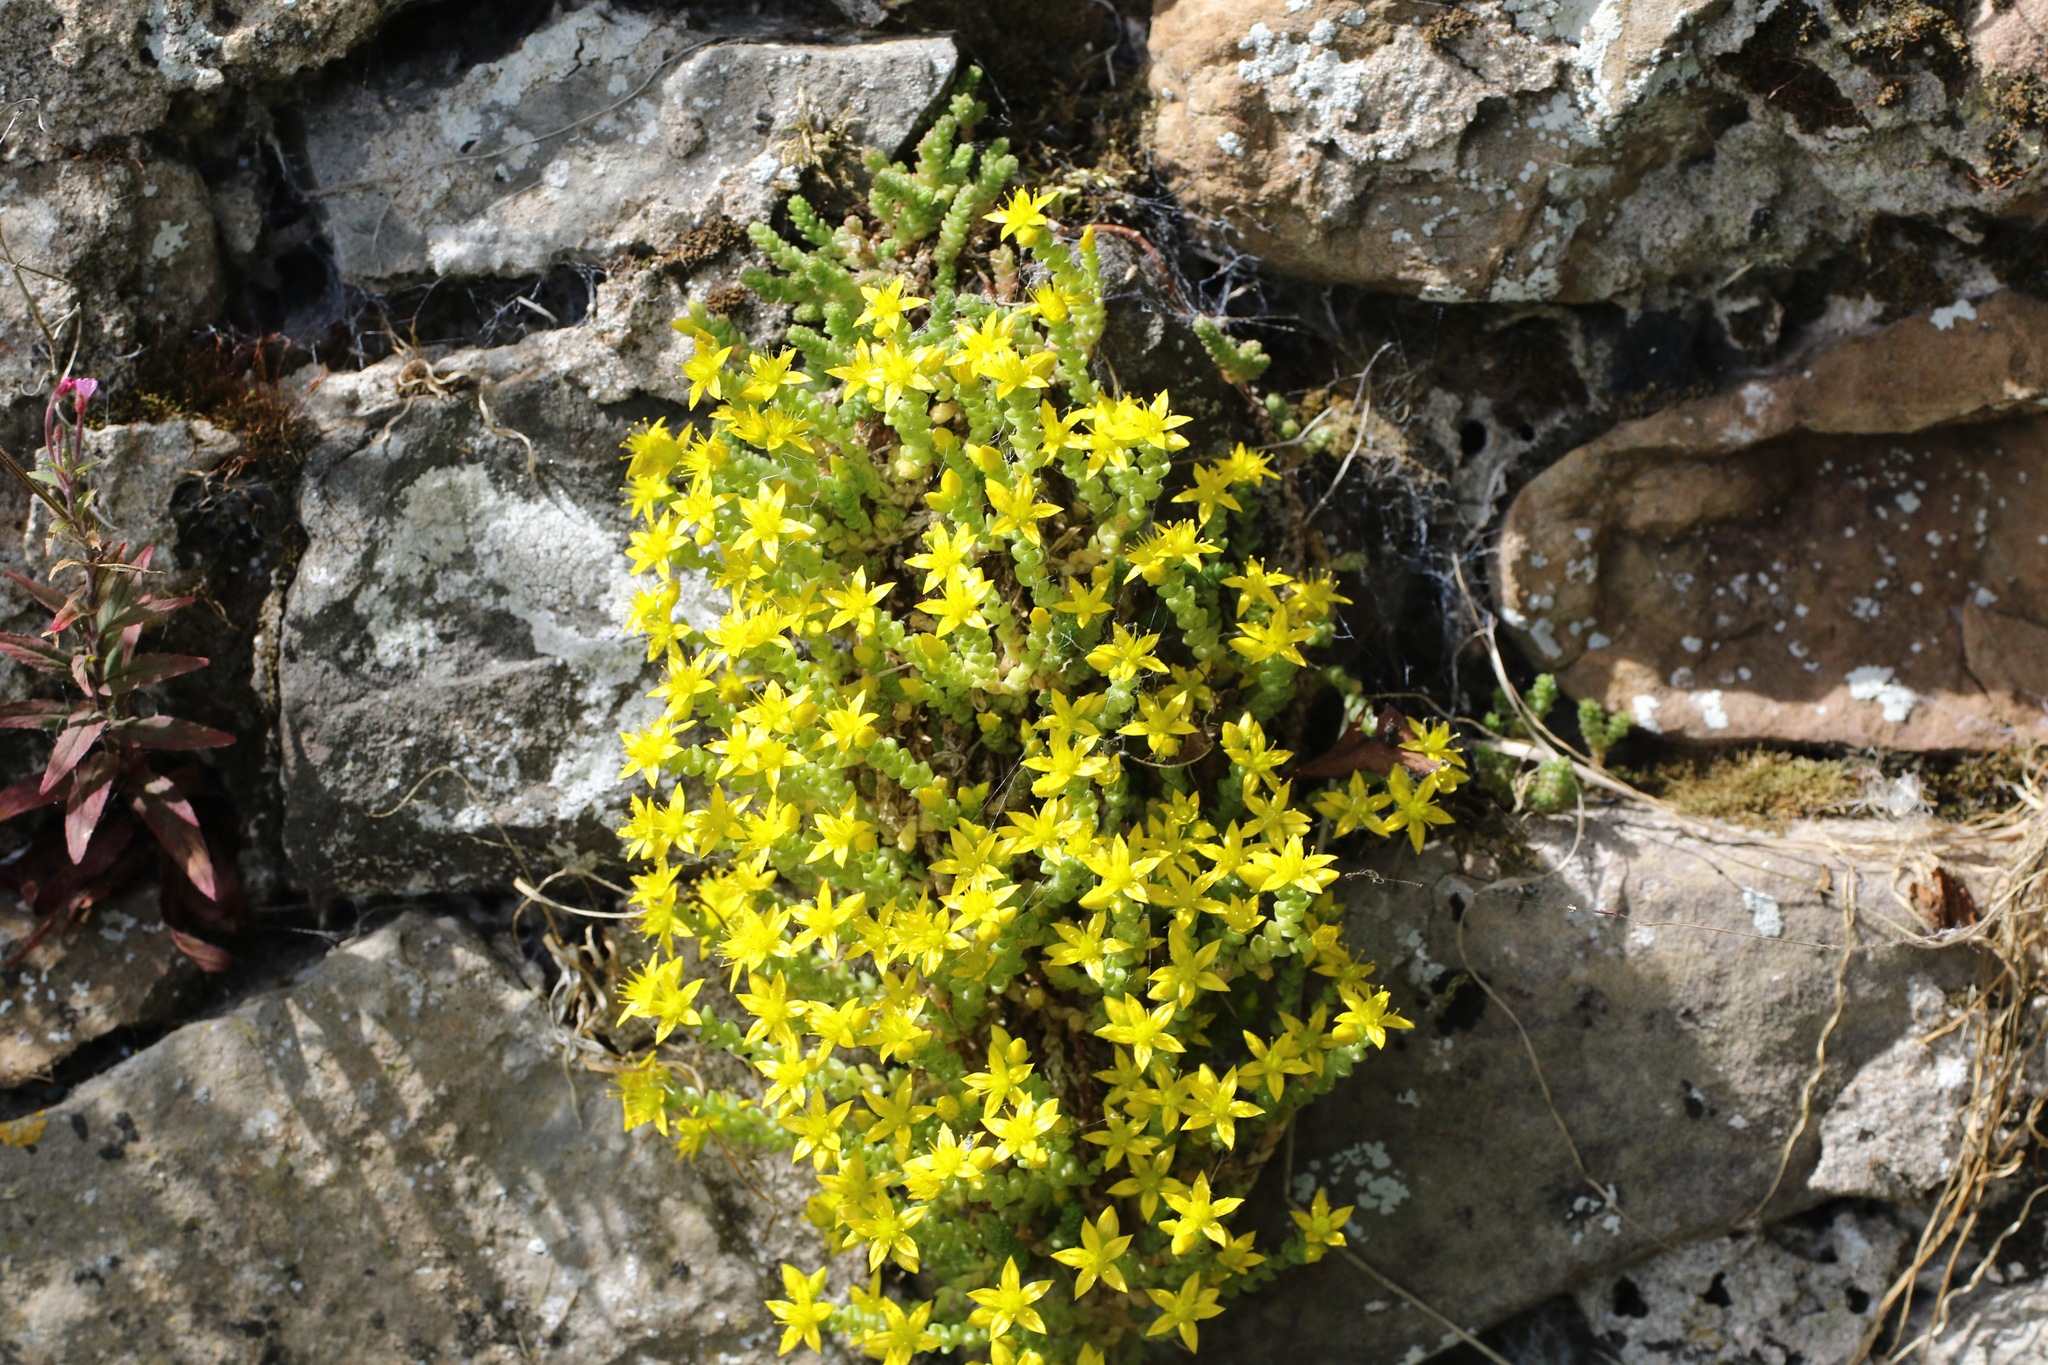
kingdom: Plantae
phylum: Tracheophyta
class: Magnoliopsida
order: Saxifragales
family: Crassulaceae
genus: Sedum
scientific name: Sedum acre
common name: Biting stonecrop
